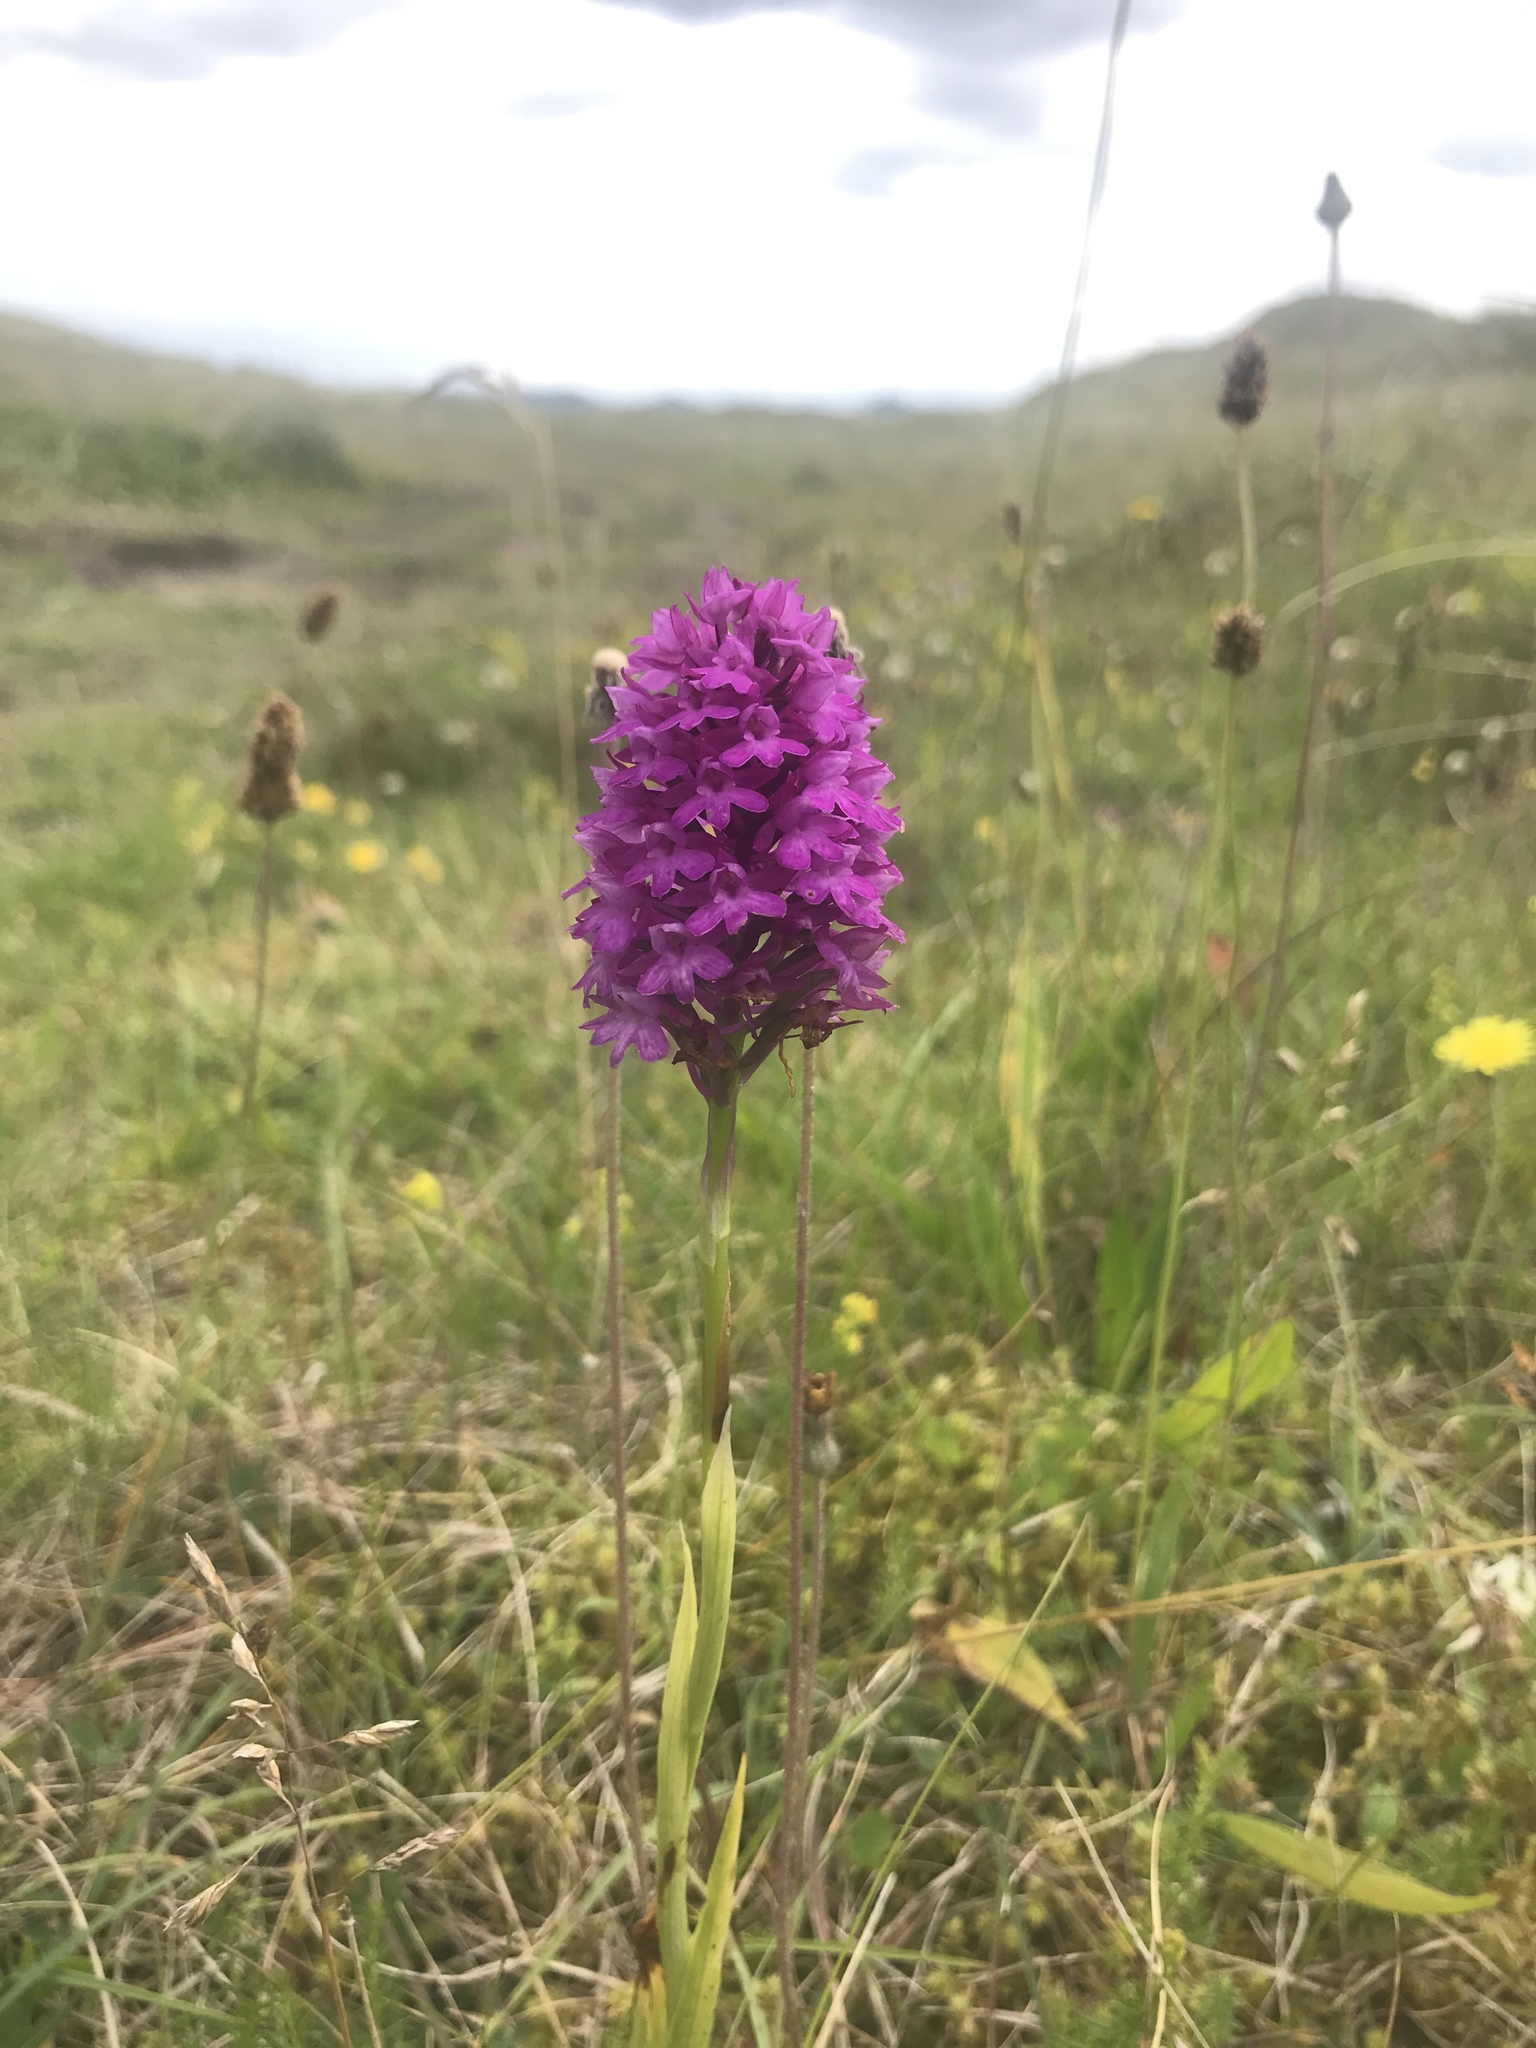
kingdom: Plantae
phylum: Tracheophyta
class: Liliopsida
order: Asparagales
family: Orchidaceae
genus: Anacamptis
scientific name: Anacamptis pyramidalis
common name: Pyramidal orchid
